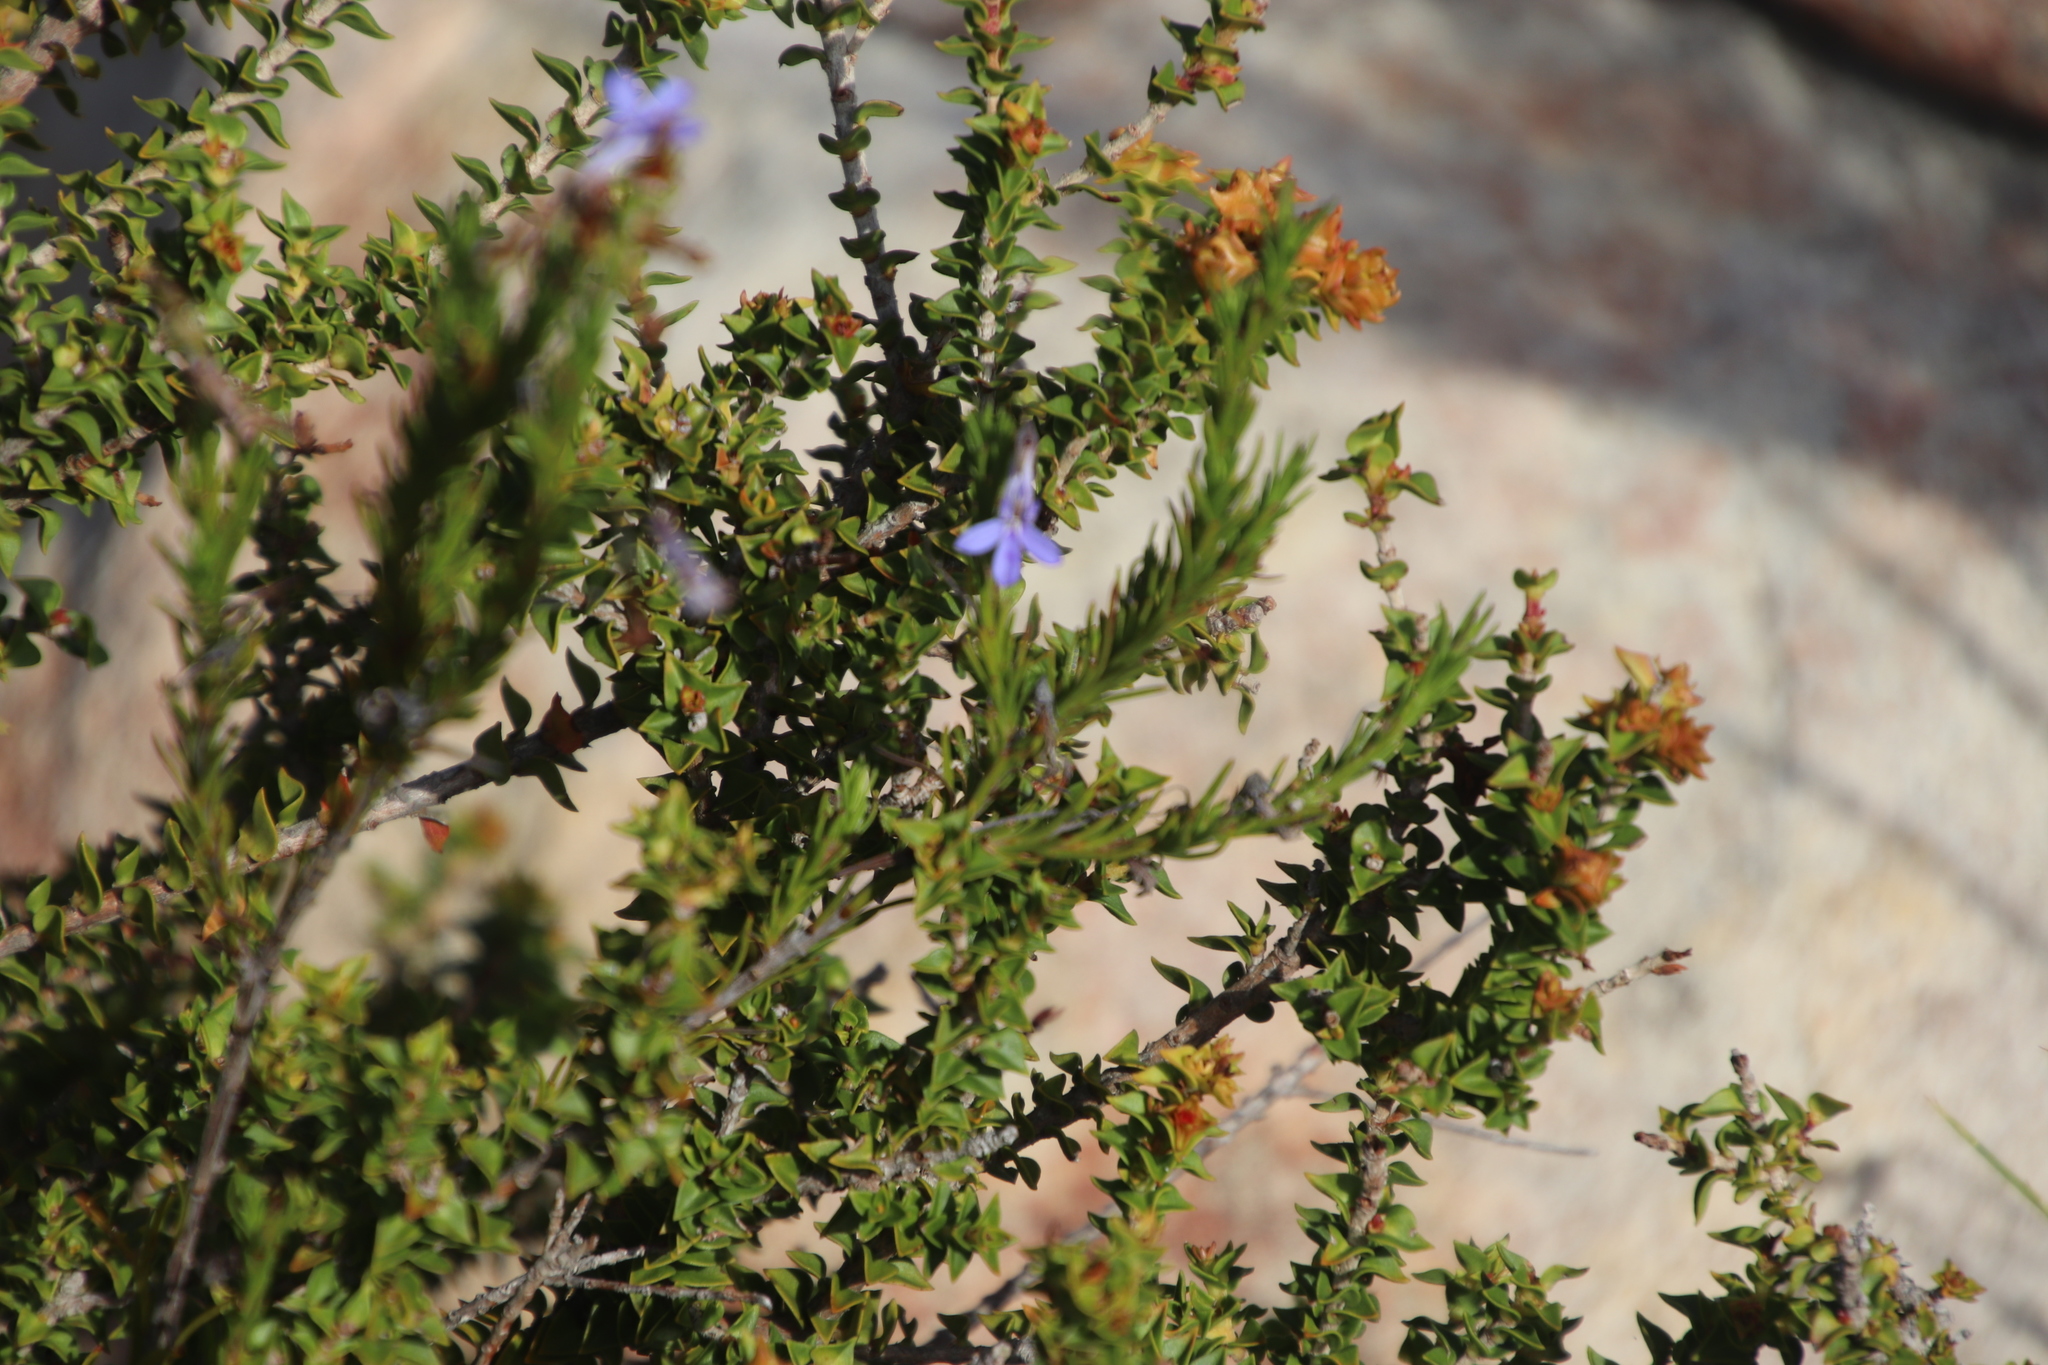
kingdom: Plantae
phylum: Tracheophyta
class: Magnoliopsida
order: Asterales
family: Campanulaceae
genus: Lobelia
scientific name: Lobelia pinifolia
